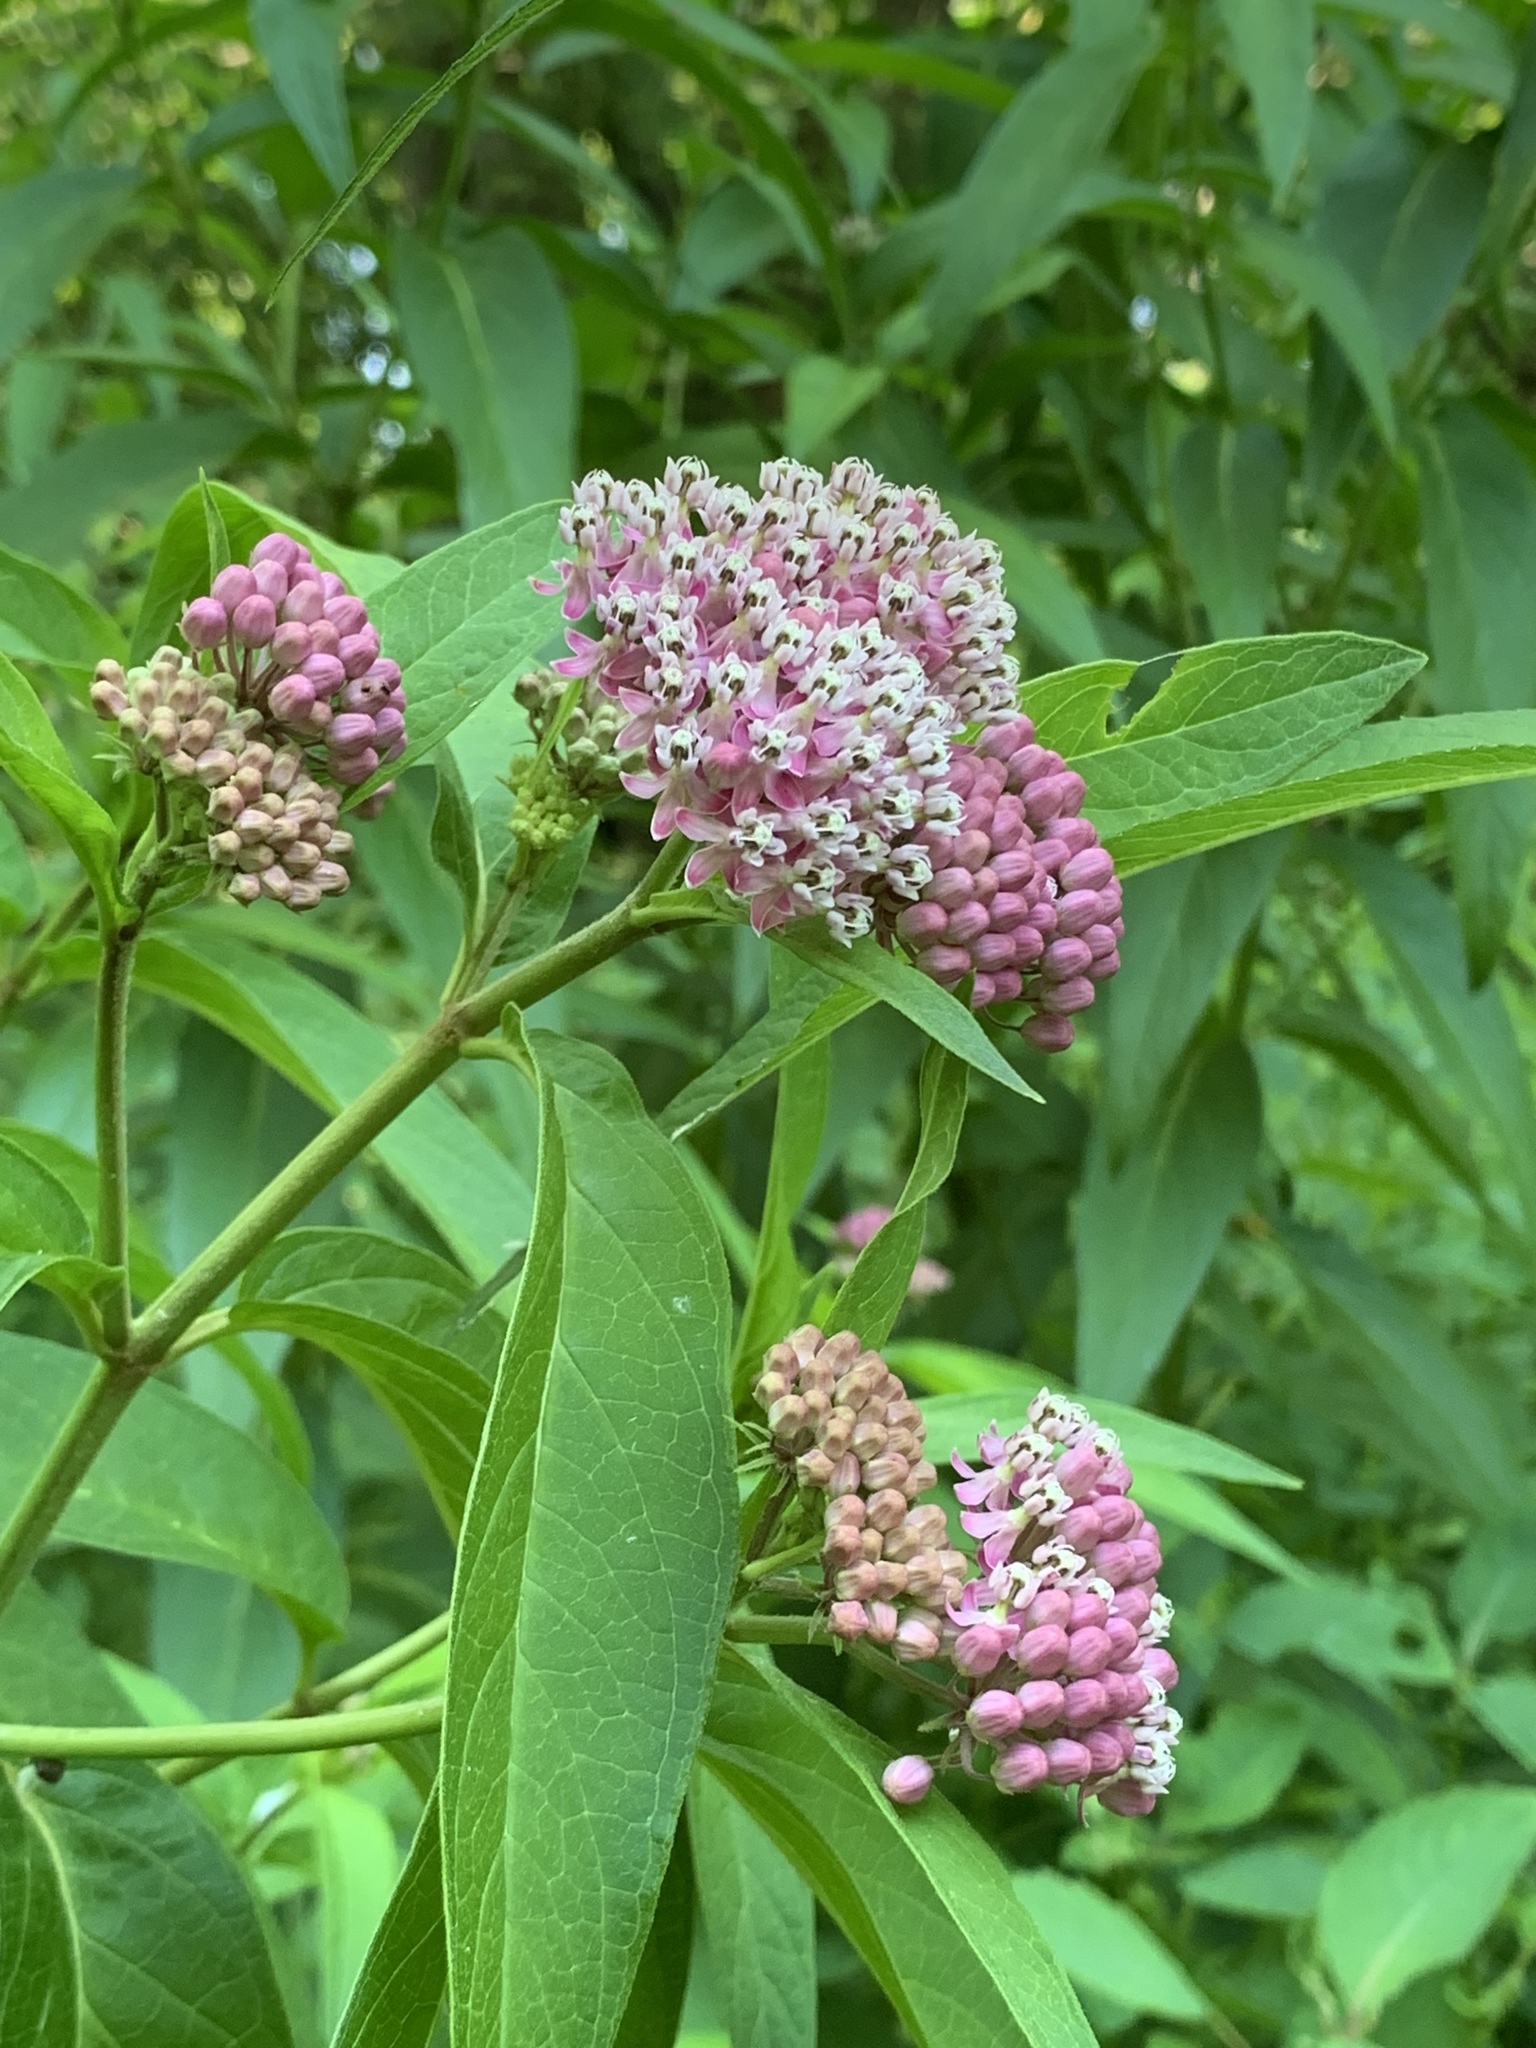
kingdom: Plantae
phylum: Tracheophyta
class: Magnoliopsida
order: Gentianales
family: Apocynaceae
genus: Asclepias
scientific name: Asclepias incarnata
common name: Swamp milkweed
